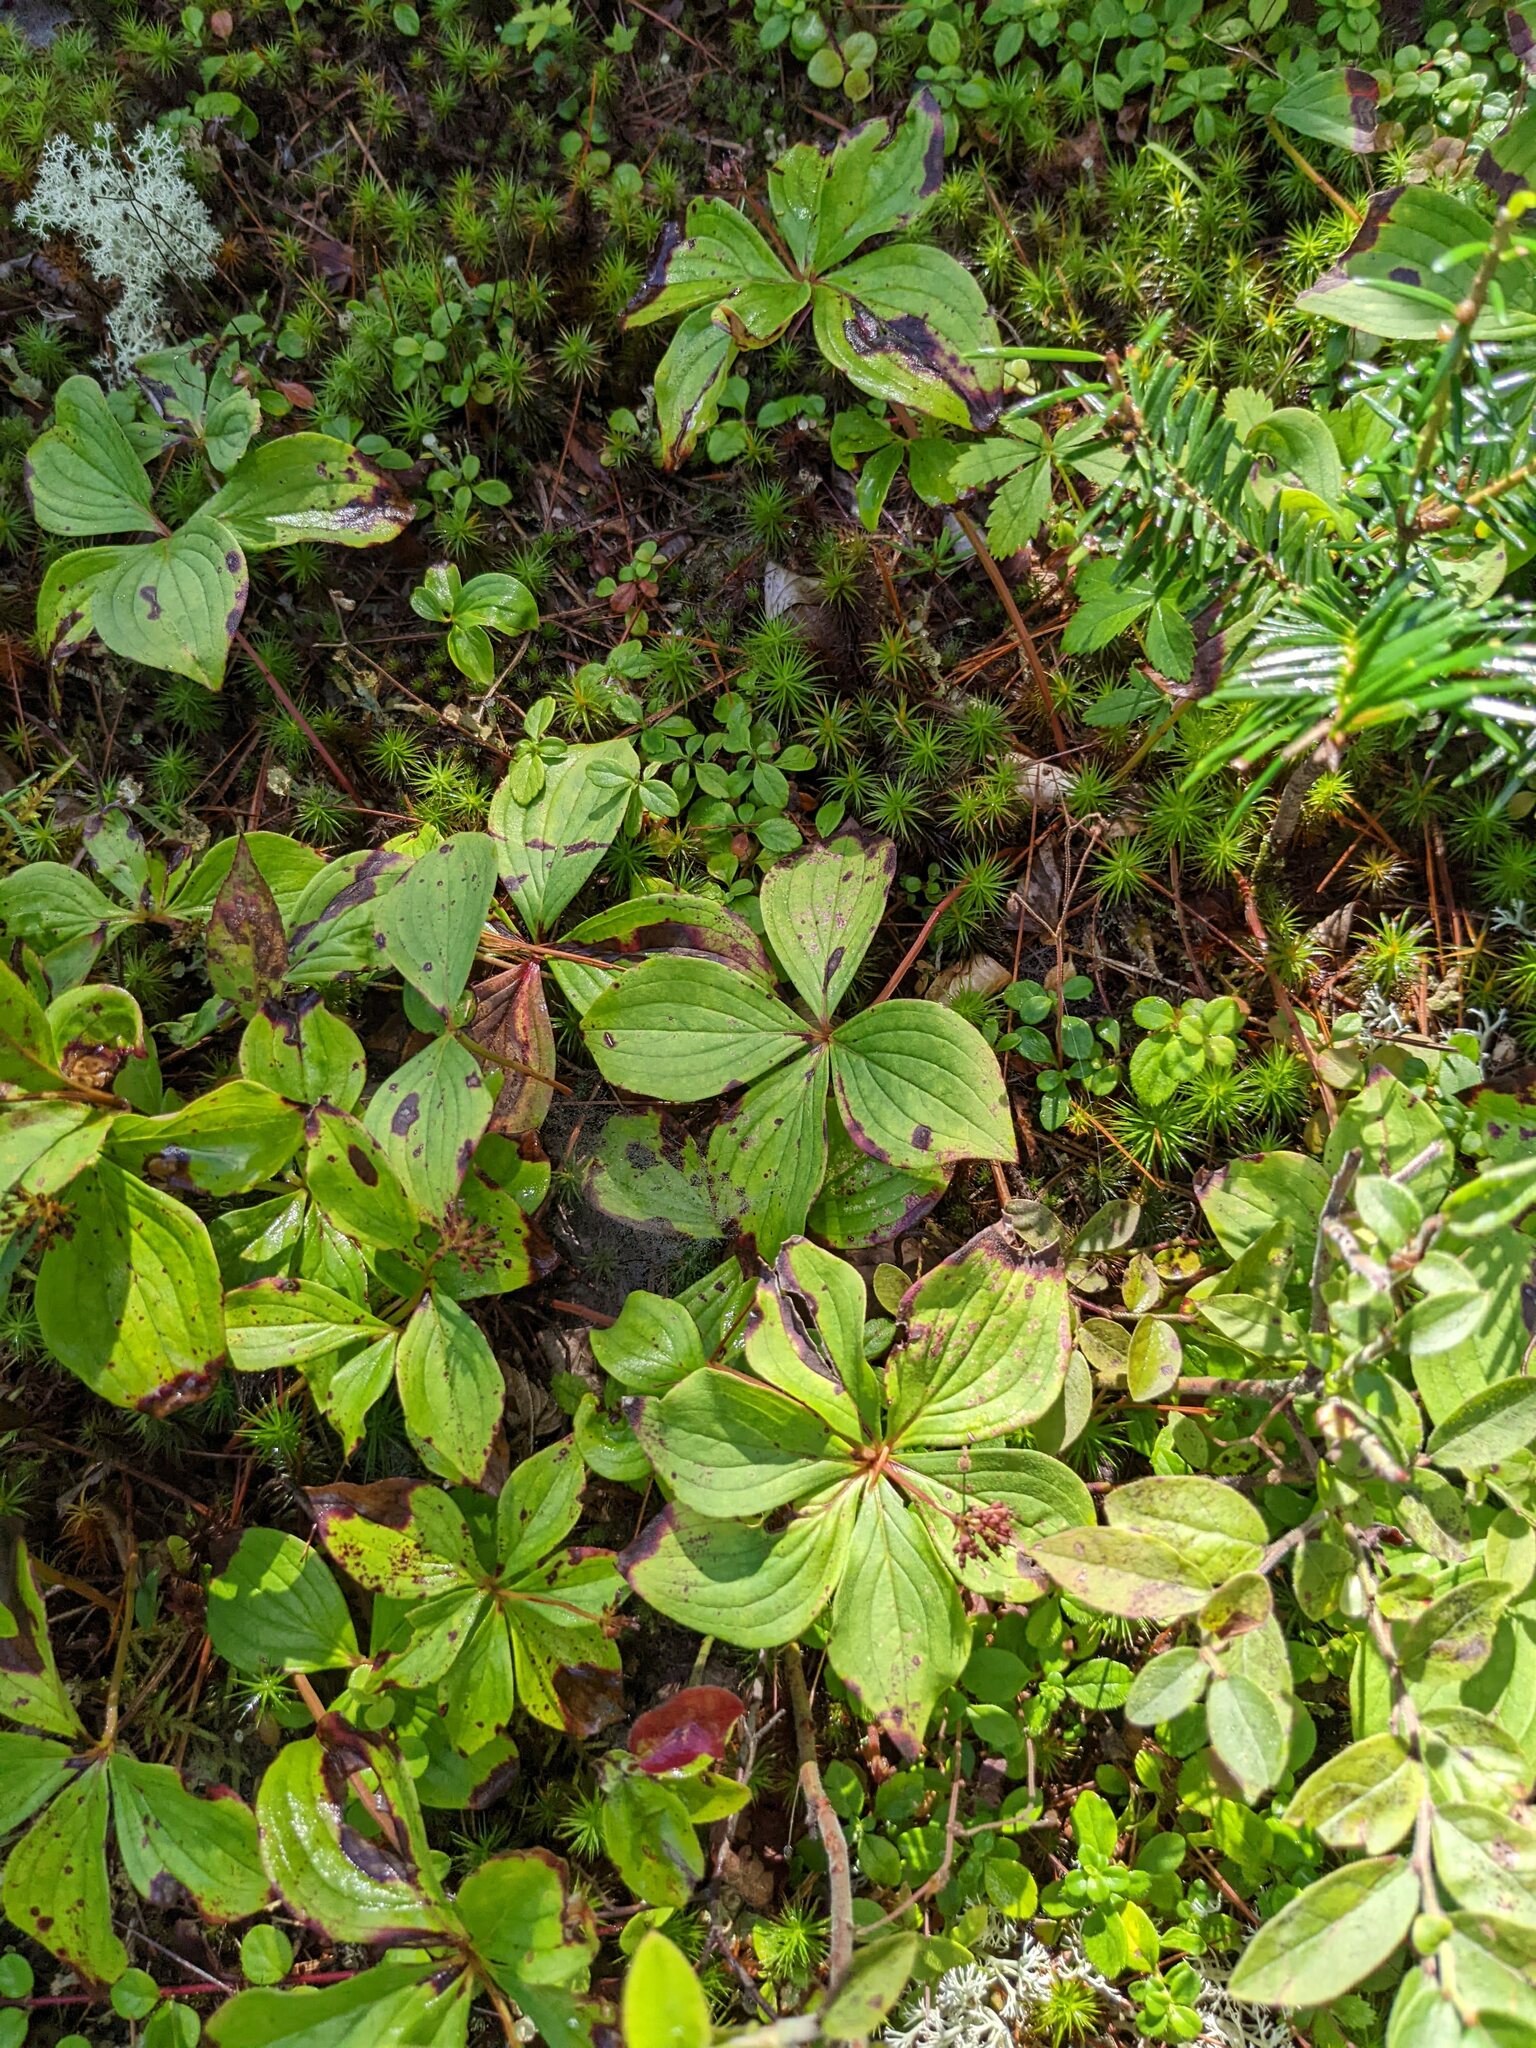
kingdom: Plantae
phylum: Tracheophyta
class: Magnoliopsida
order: Cornales
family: Cornaceae
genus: Cornus
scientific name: Cornus canadensis
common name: Creeping dogwood
